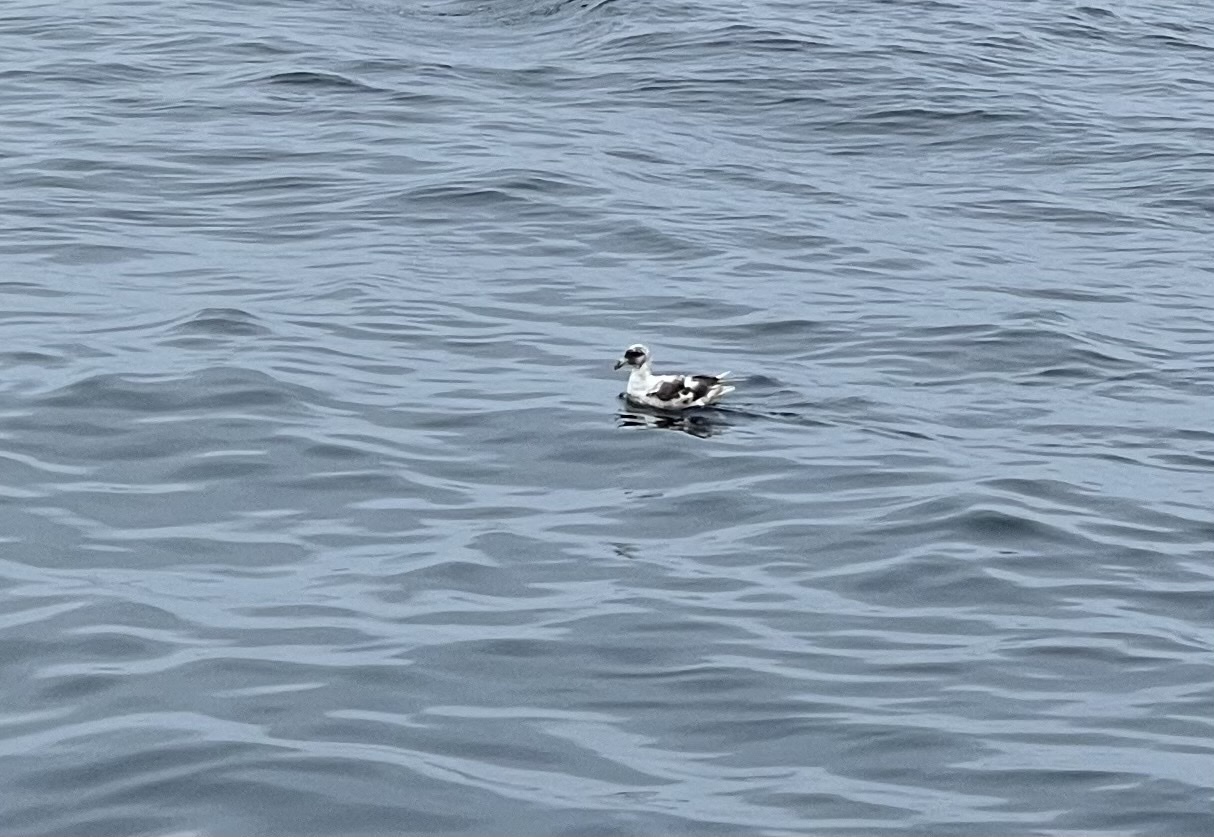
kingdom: Animalia
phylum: Chordata
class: Aves
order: Procellariiformes
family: Procellariidae
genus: Fulmarus
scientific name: Fulmarus glacialis
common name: Northern fulmar
